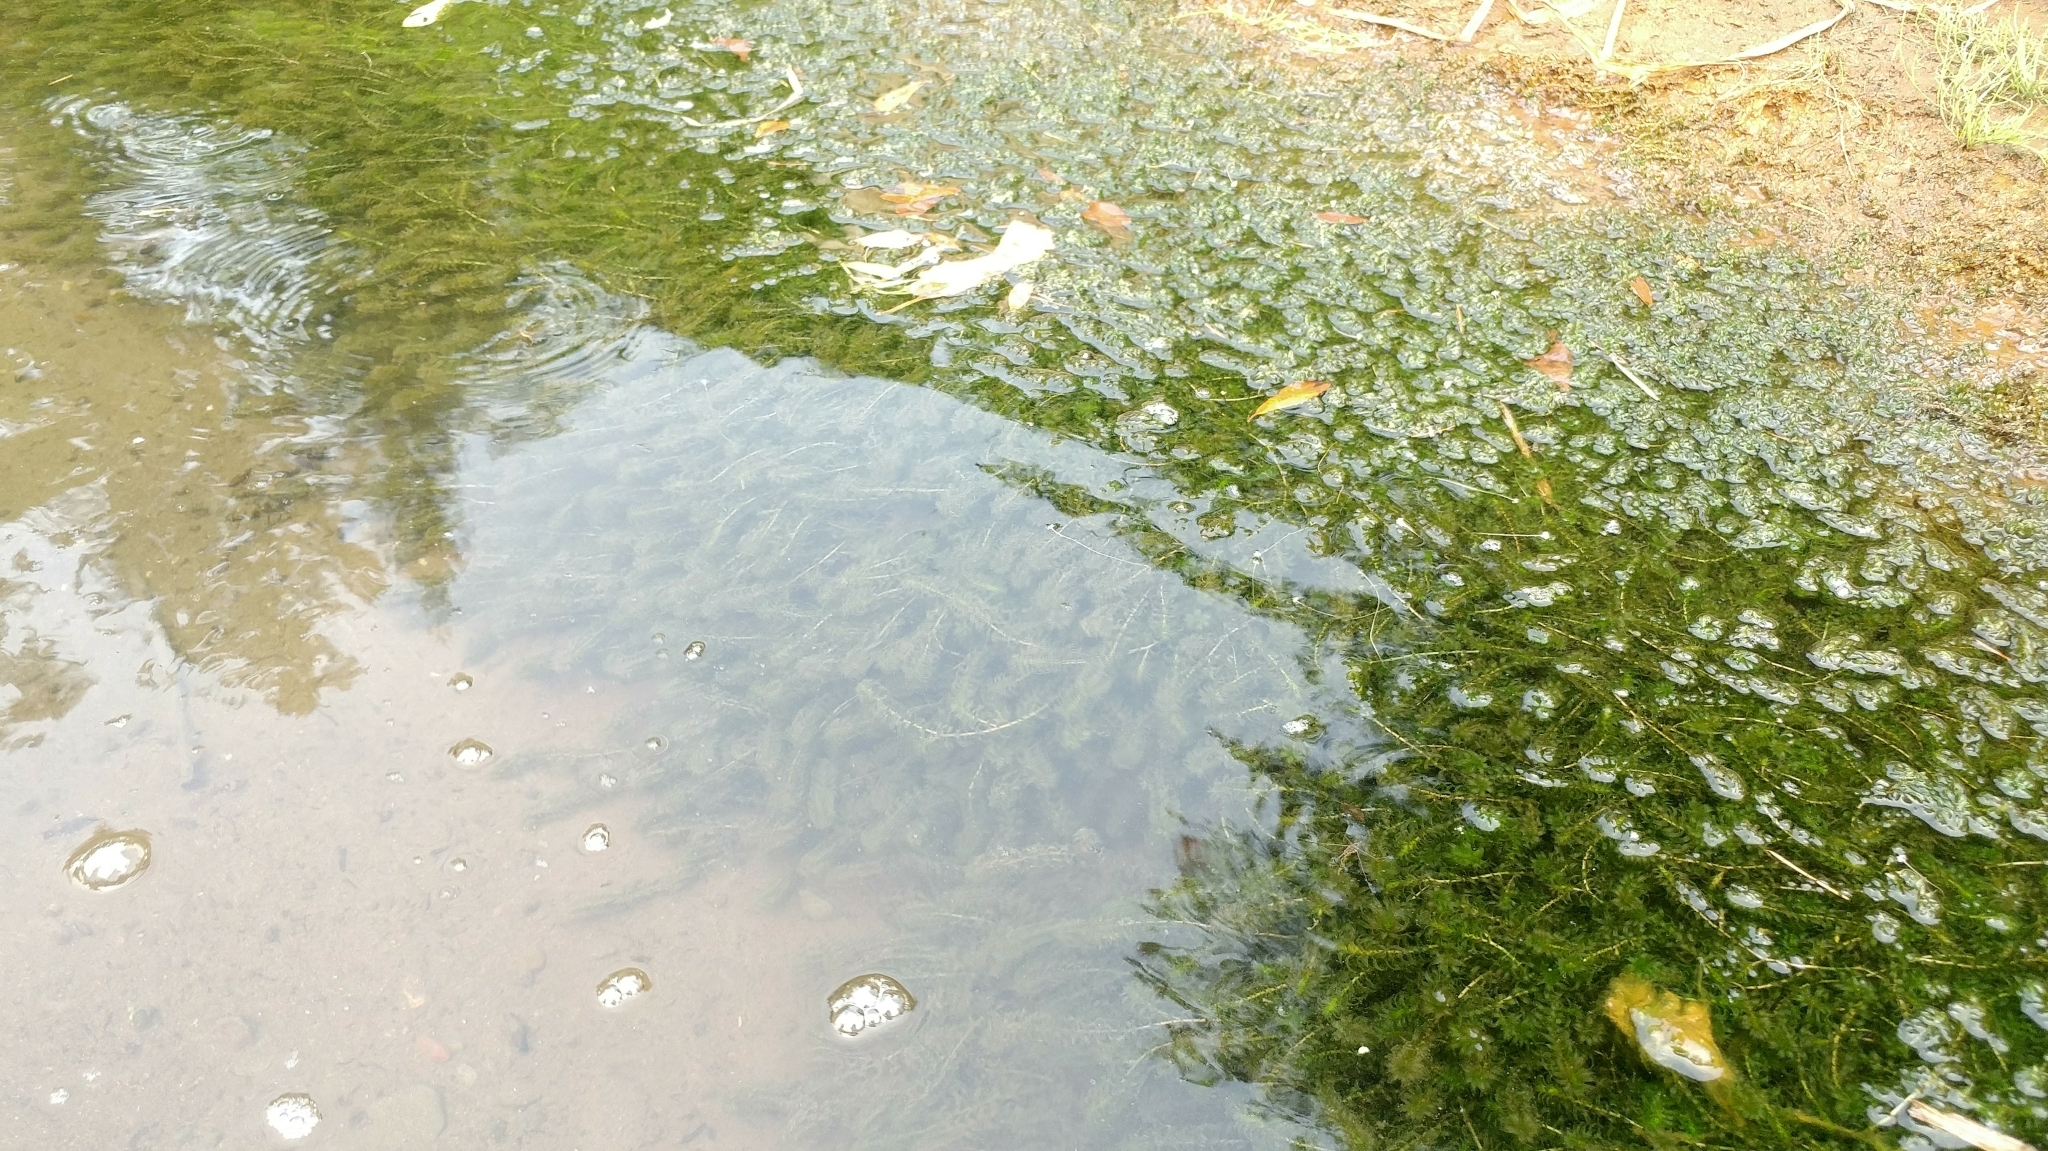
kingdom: Plantae
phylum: Tracheophyta
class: Liliopsida
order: Alismatales
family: Hydrocharitaceae
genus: Elodea
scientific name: Elodea canadensis
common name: Canadian waterweed
